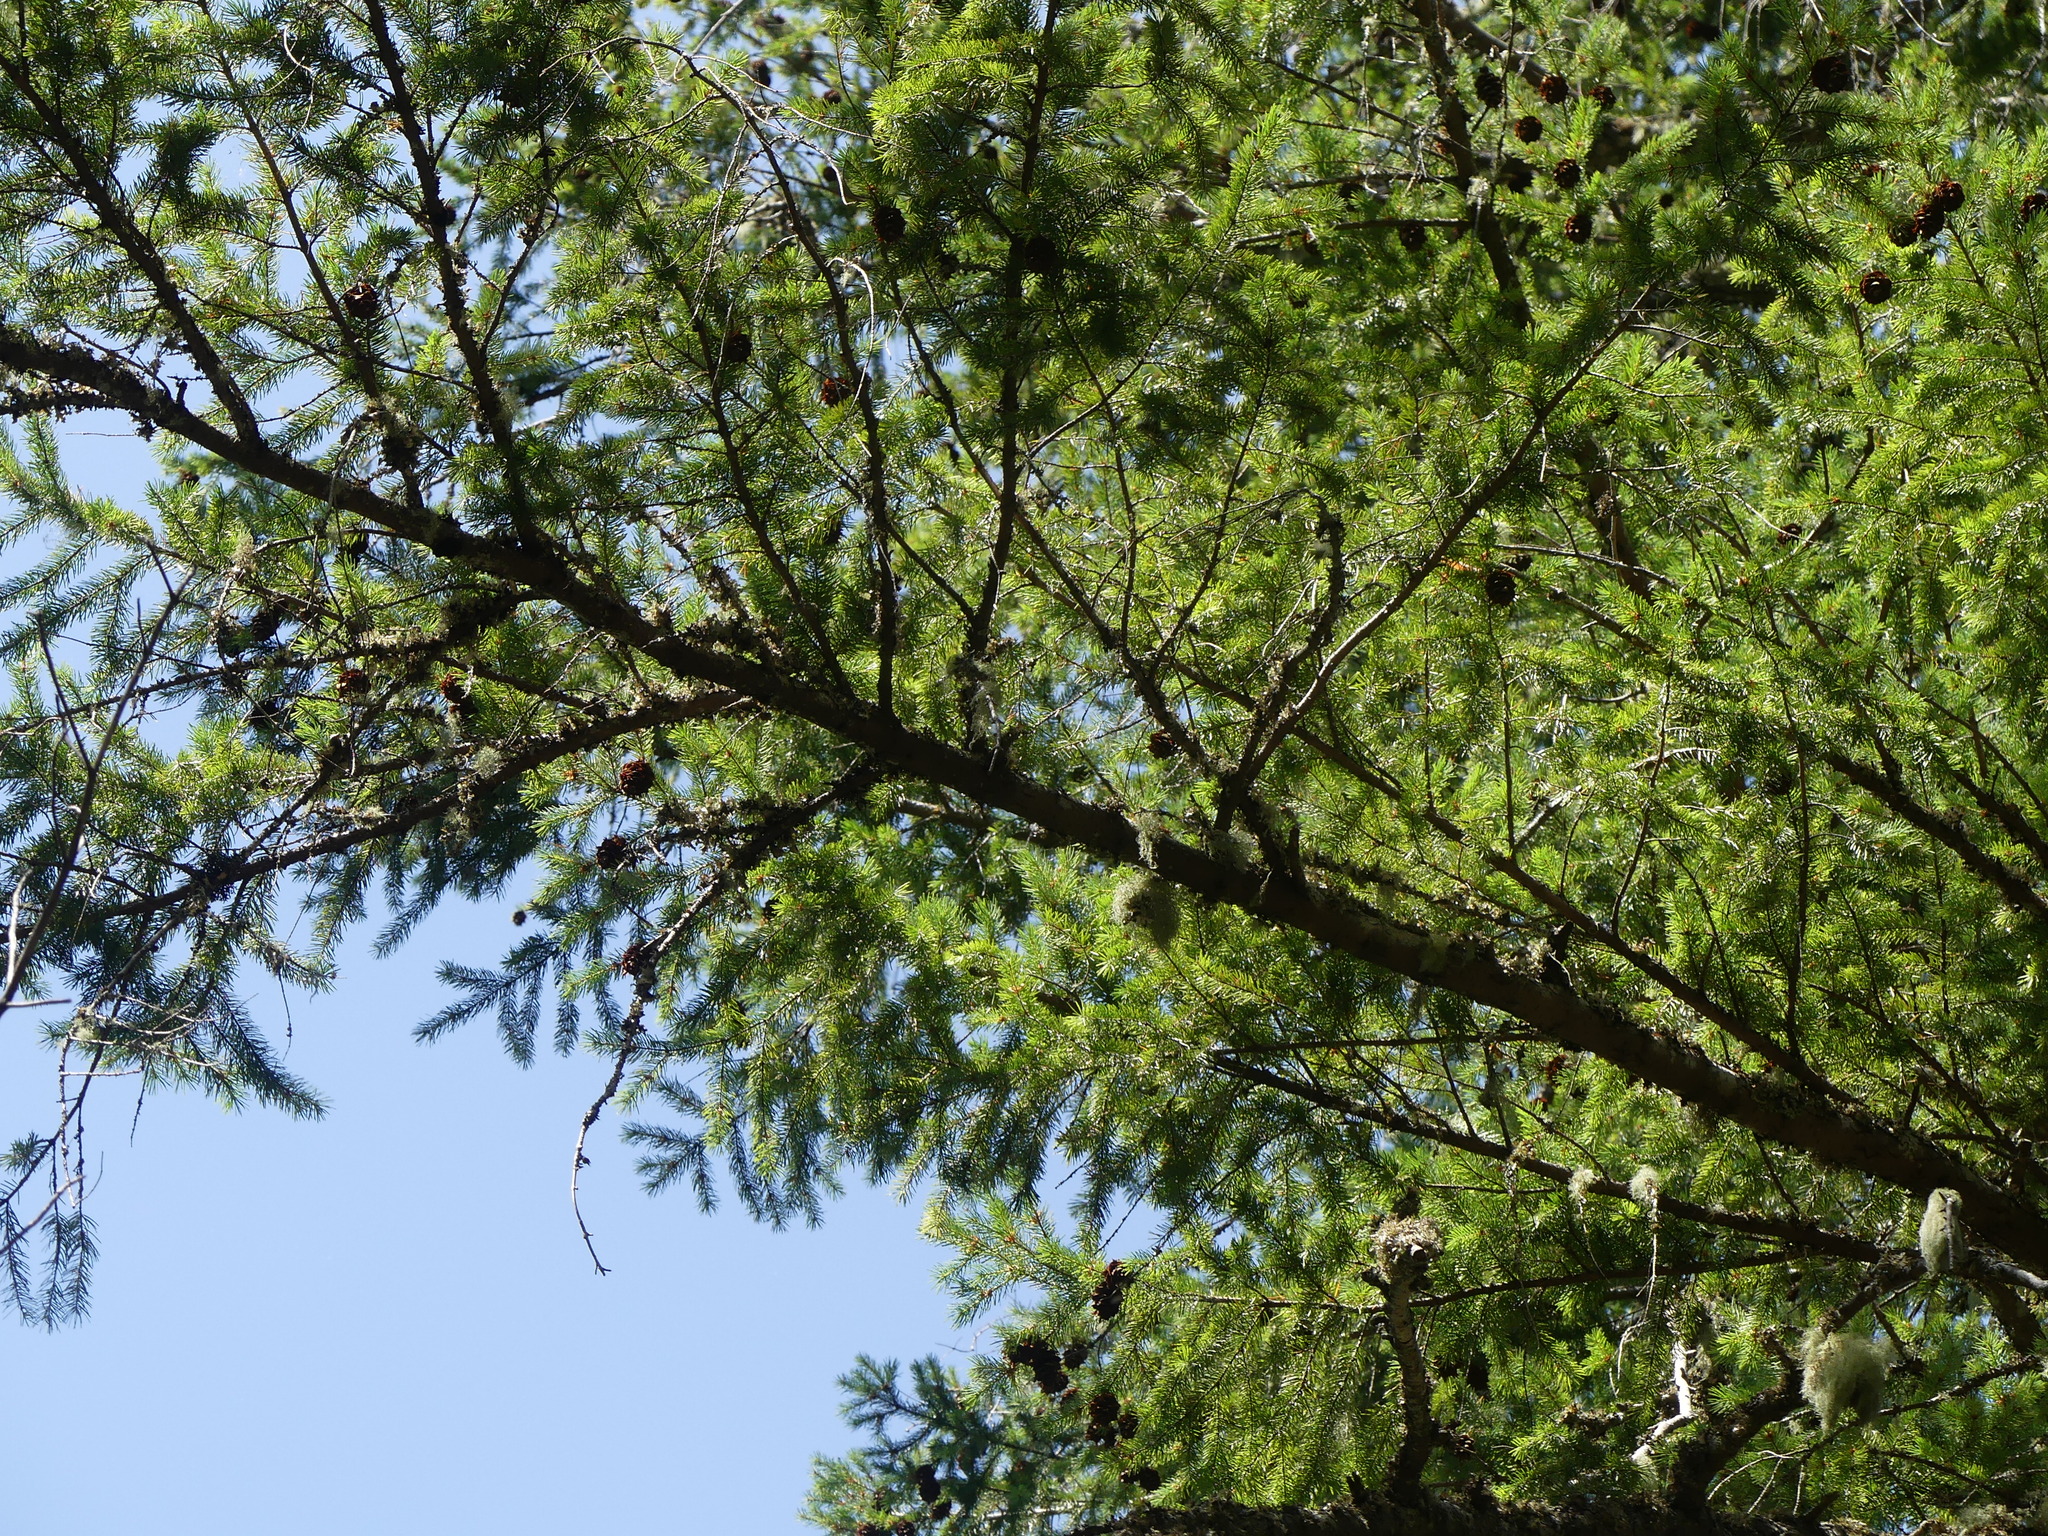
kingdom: Plantae
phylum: Tracheophyta
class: Pinopsida
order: Pinales
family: Pinaceae
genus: Pseudotsuga
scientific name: Pseudotsuga menziesii
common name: Douglas fir
